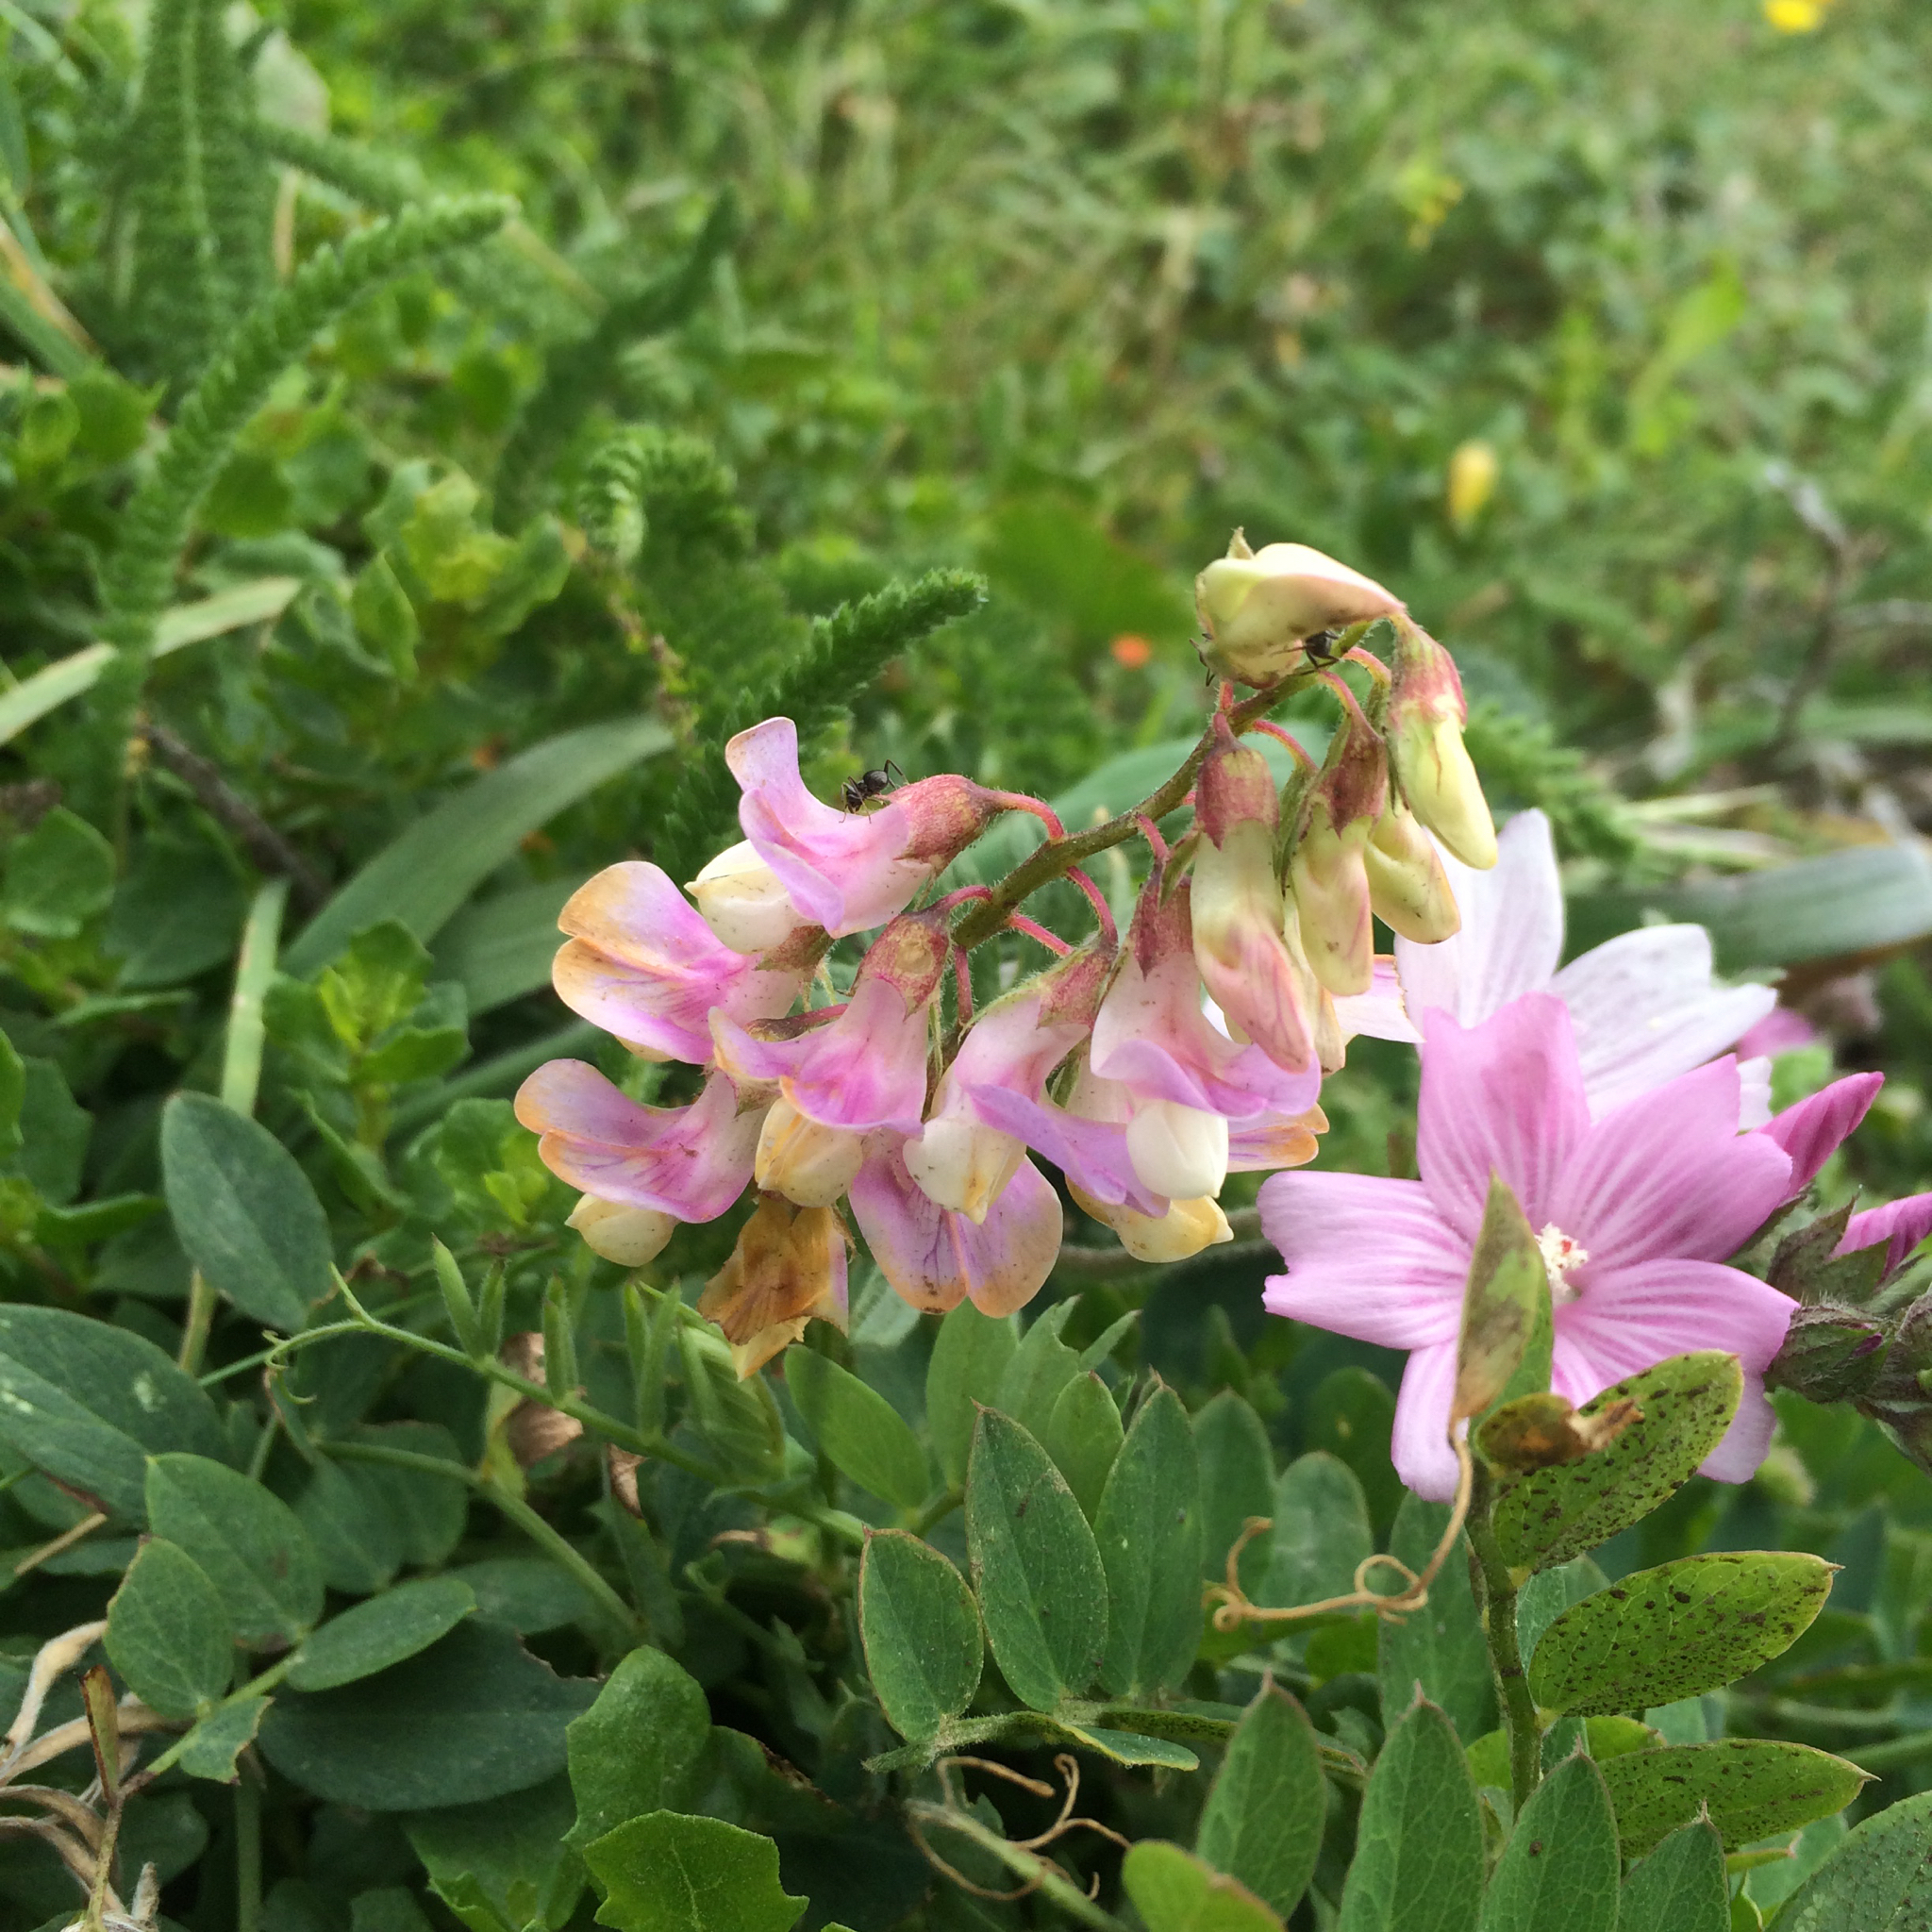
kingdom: Plantae
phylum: Tracheophyta
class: Magnoliopsida
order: Fabales
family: Fabaceae
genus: Lathyrus
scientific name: Lathyrus vestitus
